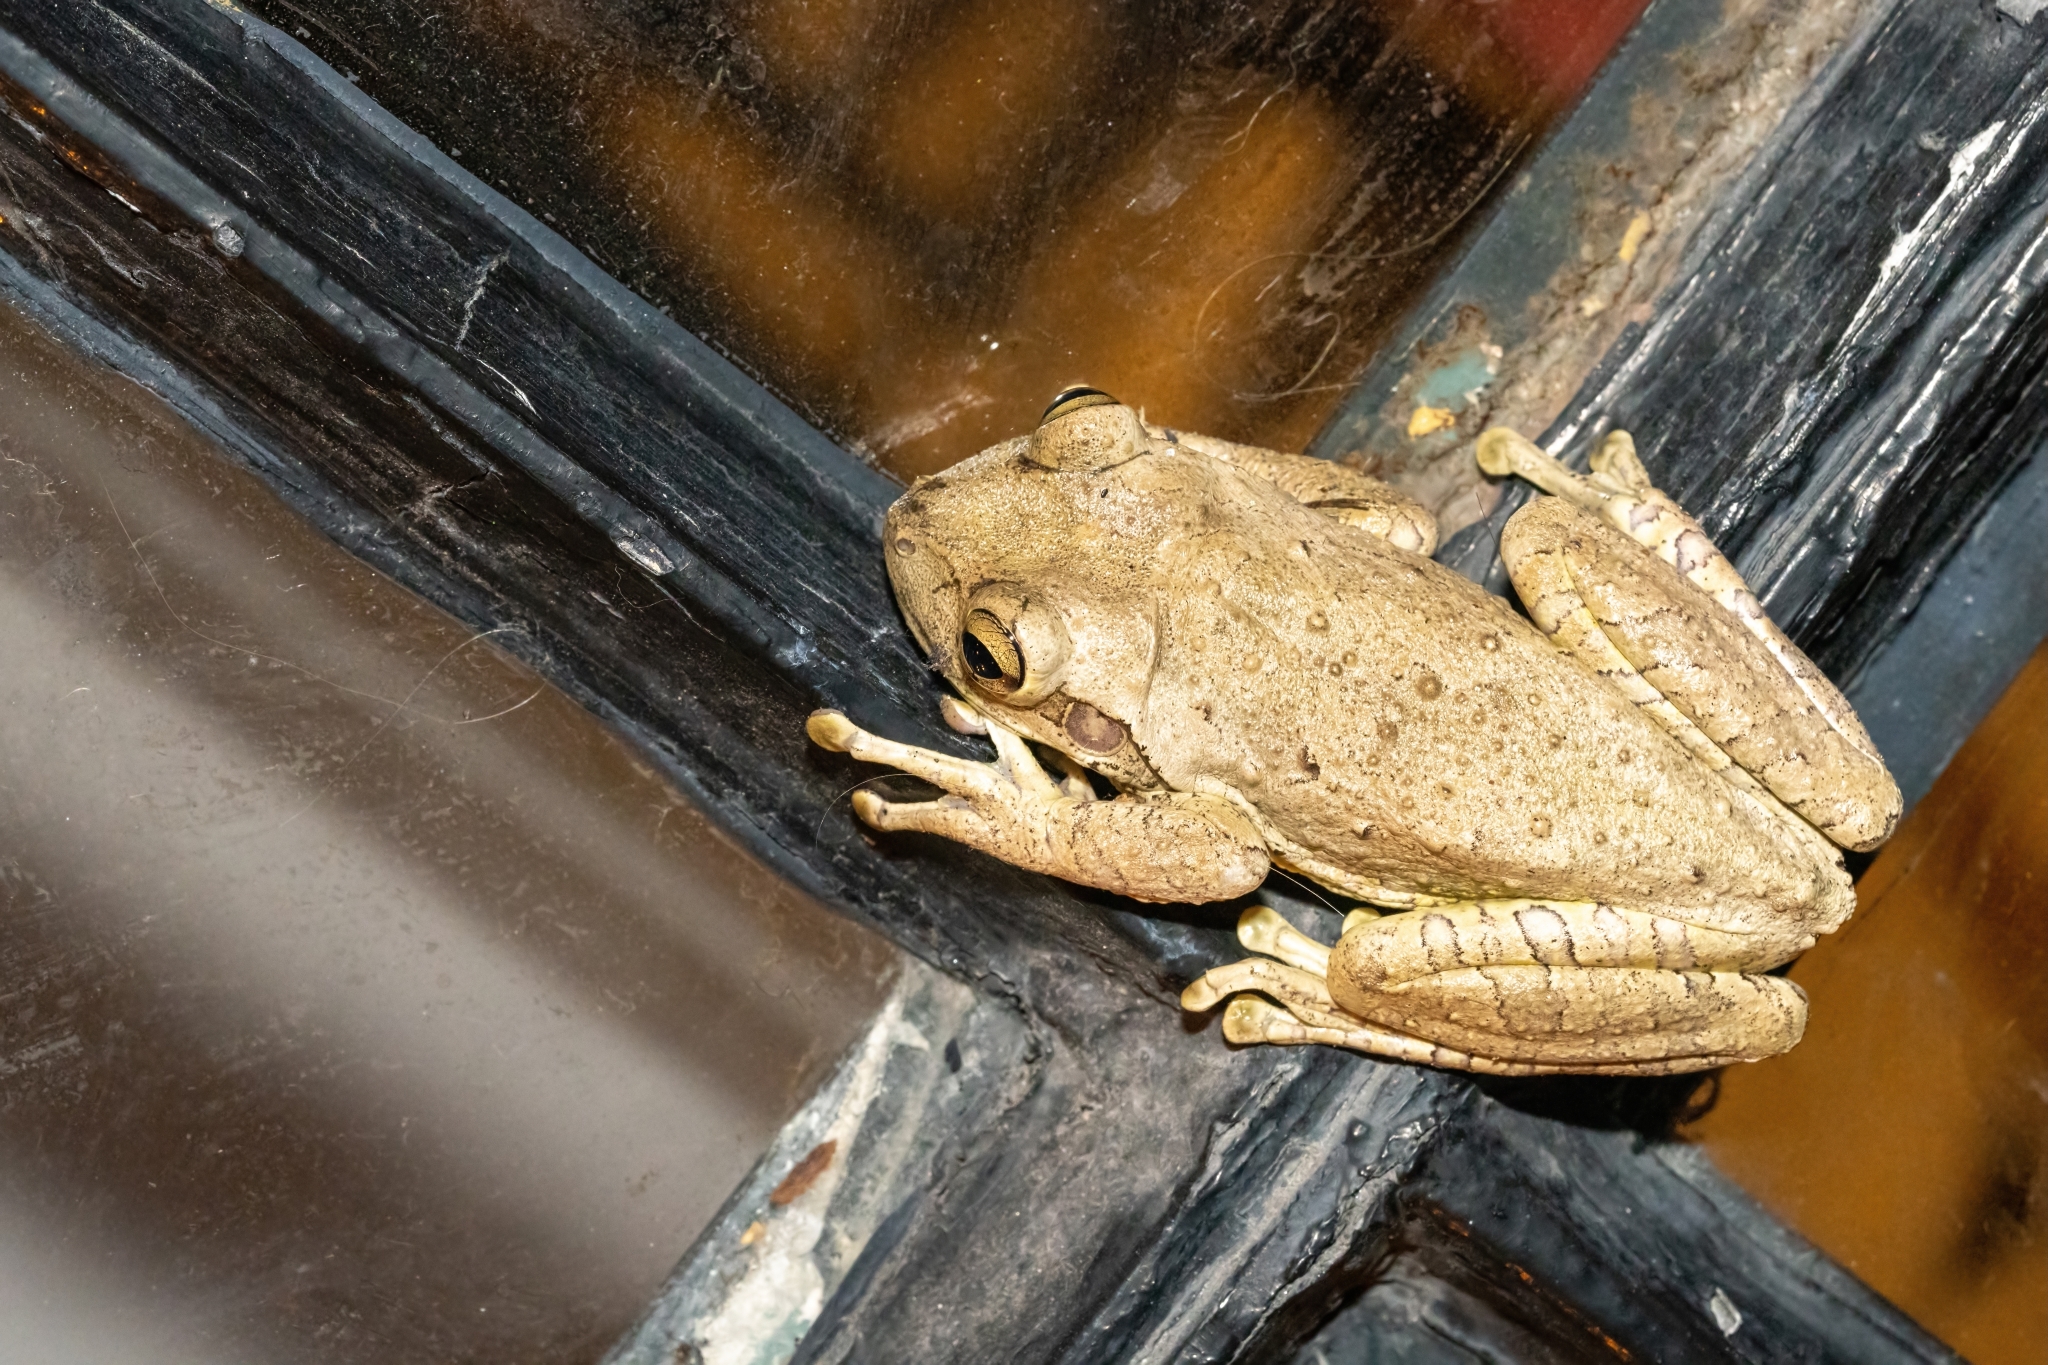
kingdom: Animalia
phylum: Chordata
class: Amphibia
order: Anura
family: Hylidae
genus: Osteopilus
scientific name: Osteopilus septentrionalis
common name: Cuban treefrog
